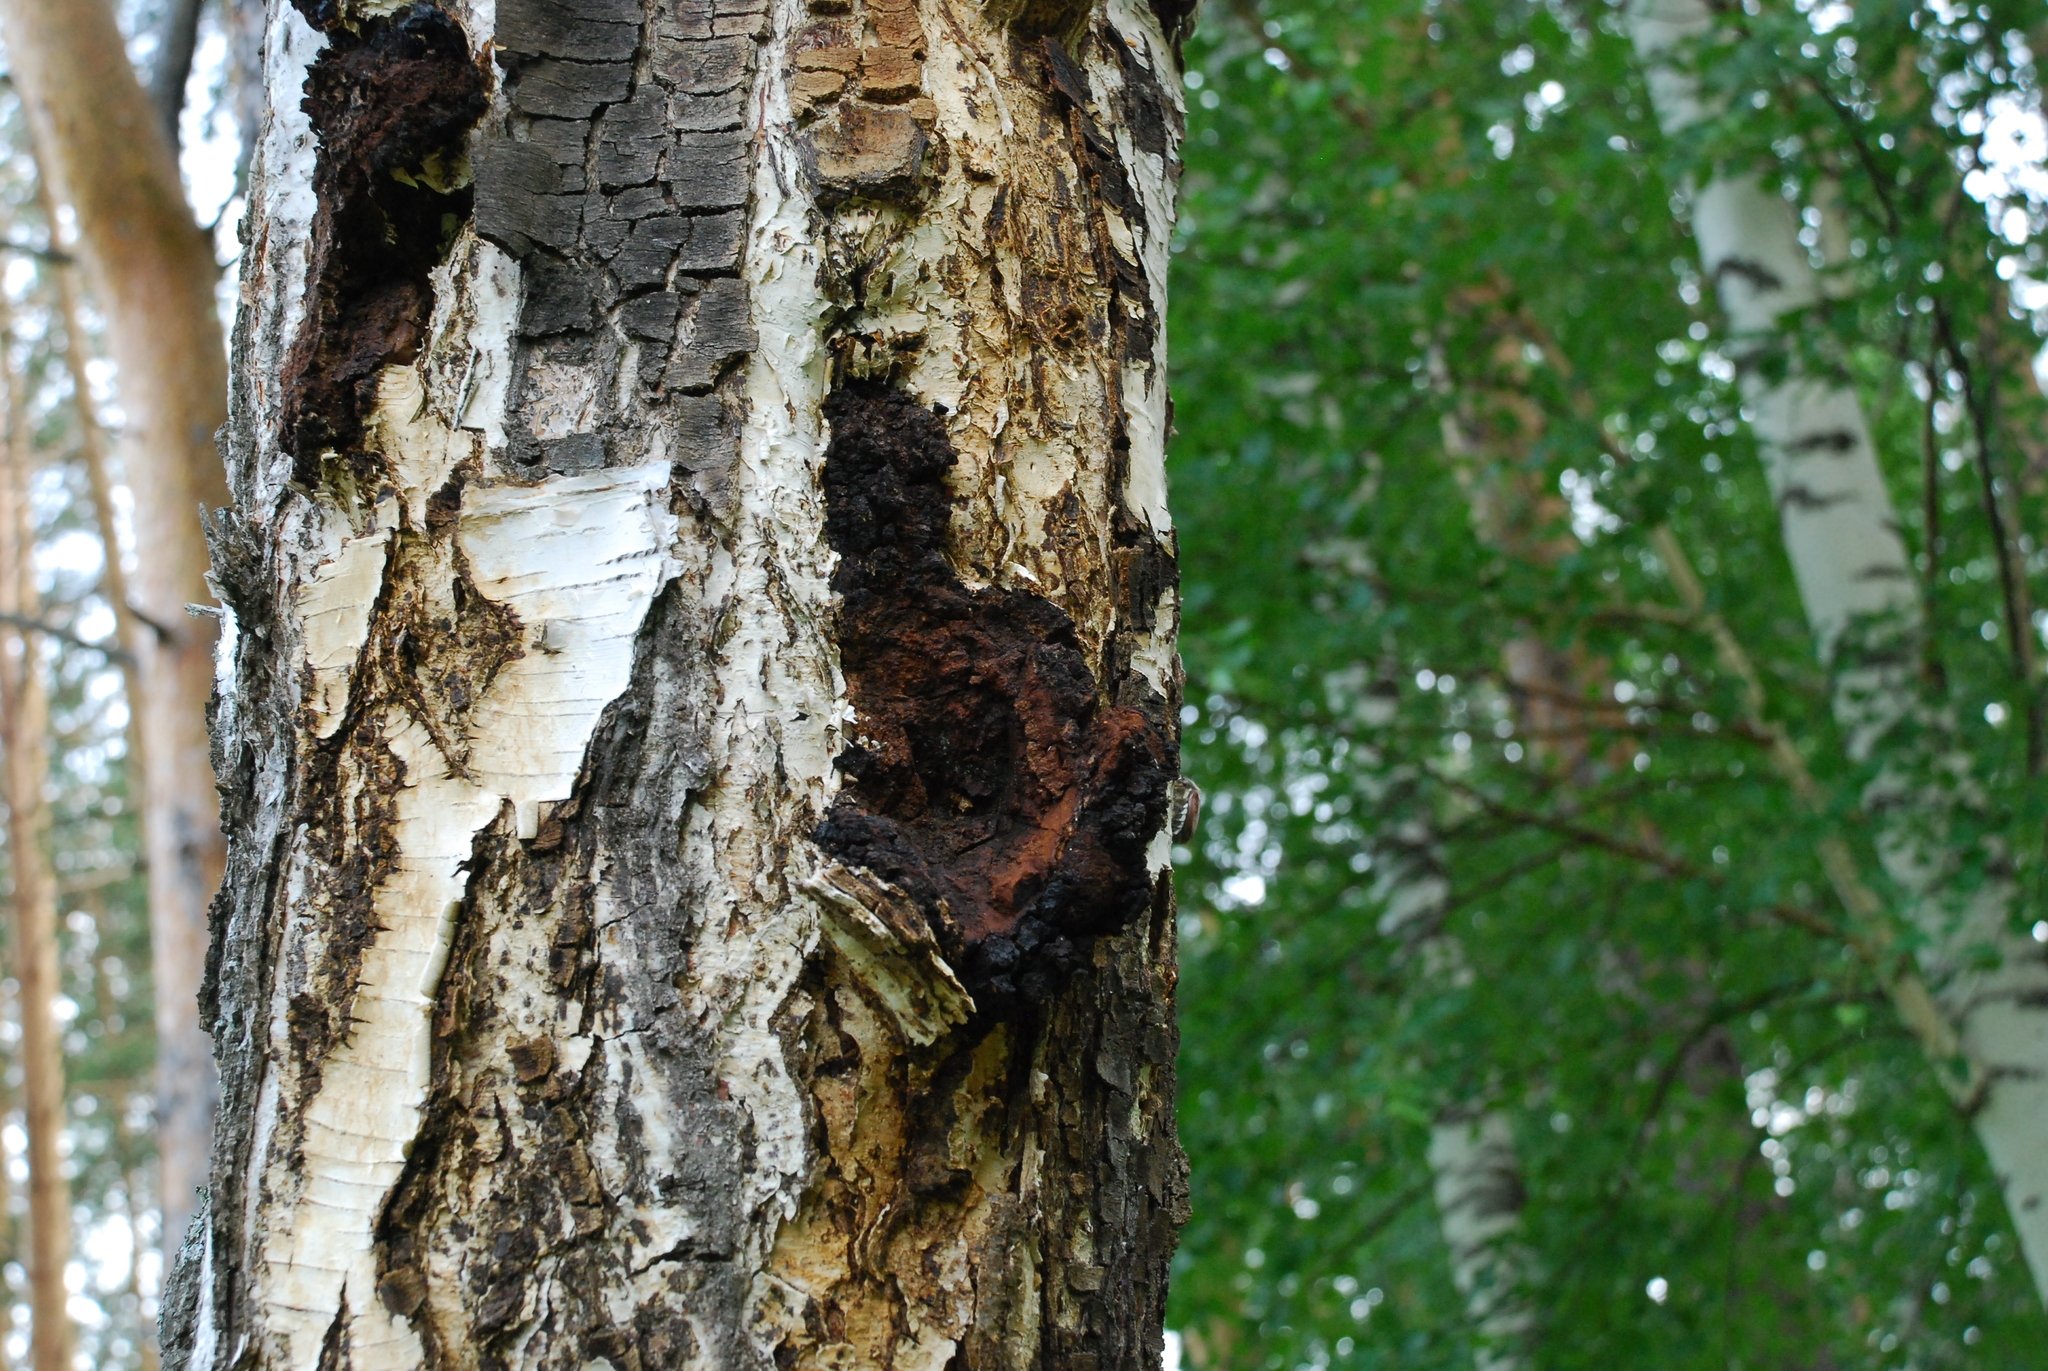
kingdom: Fungi
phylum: Basidiomycota
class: Agaricomycetes
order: Hymenochaetales
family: Hymenochaetaceae
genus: Inonotus
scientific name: Inonotus obliquus
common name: Chaga
